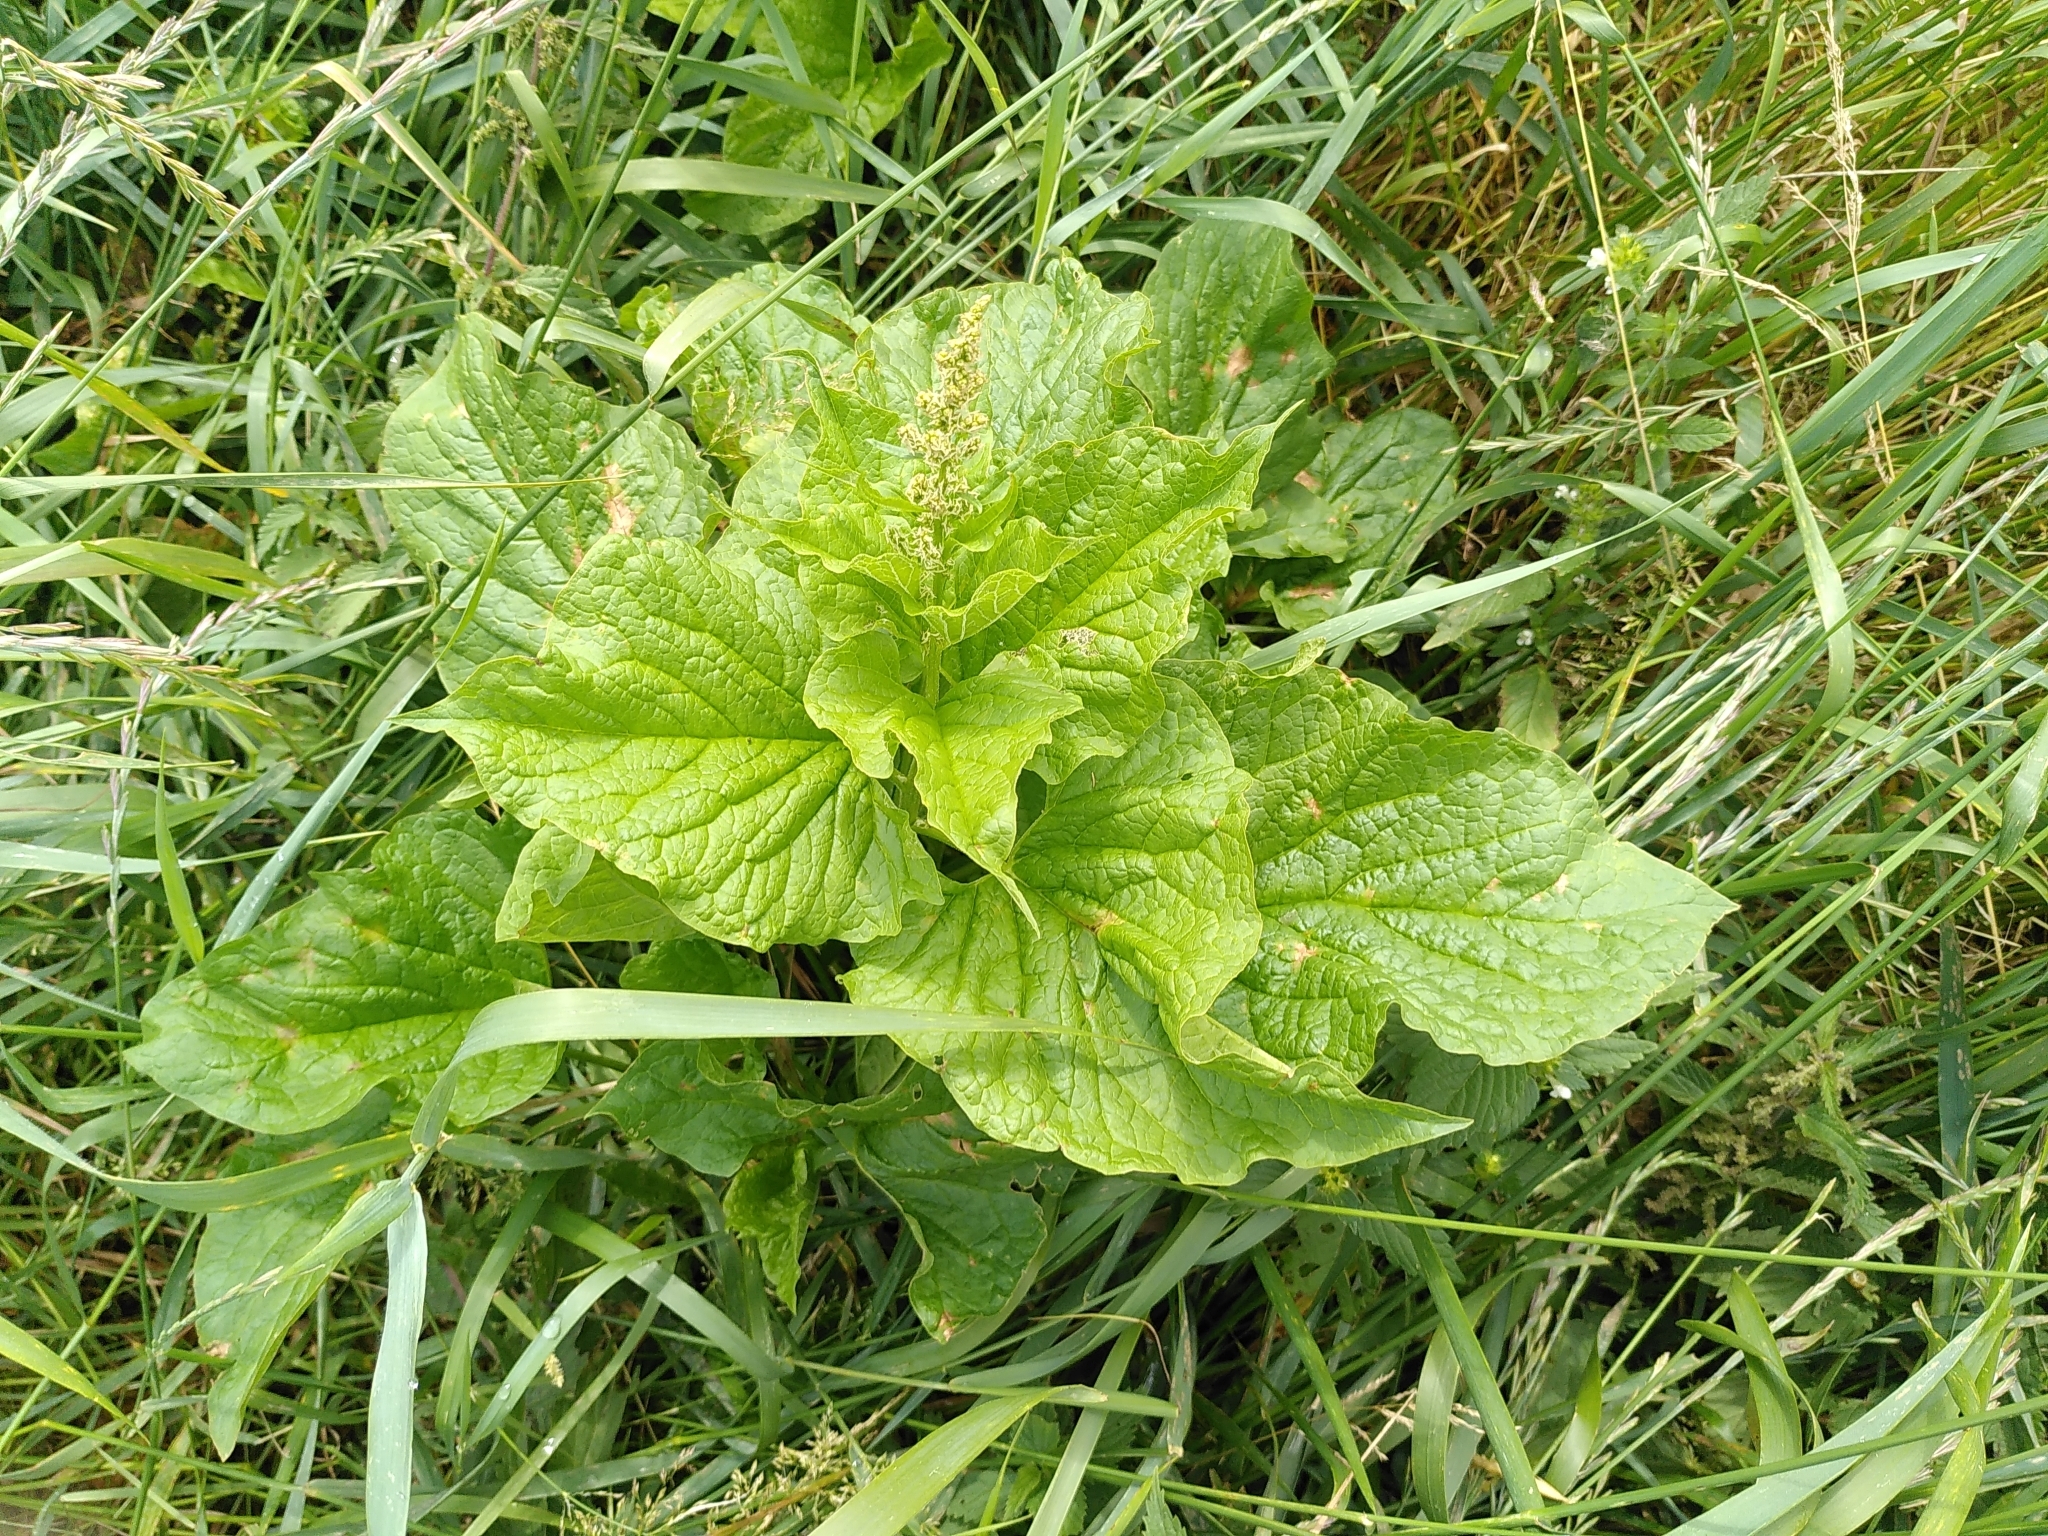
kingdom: Plantae
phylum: Tracheophyta
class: Magnoliopsida
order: Caryophyllales
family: Amaranthaceae
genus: Blitum
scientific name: Blitum bonus-henricus
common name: Good king henry
